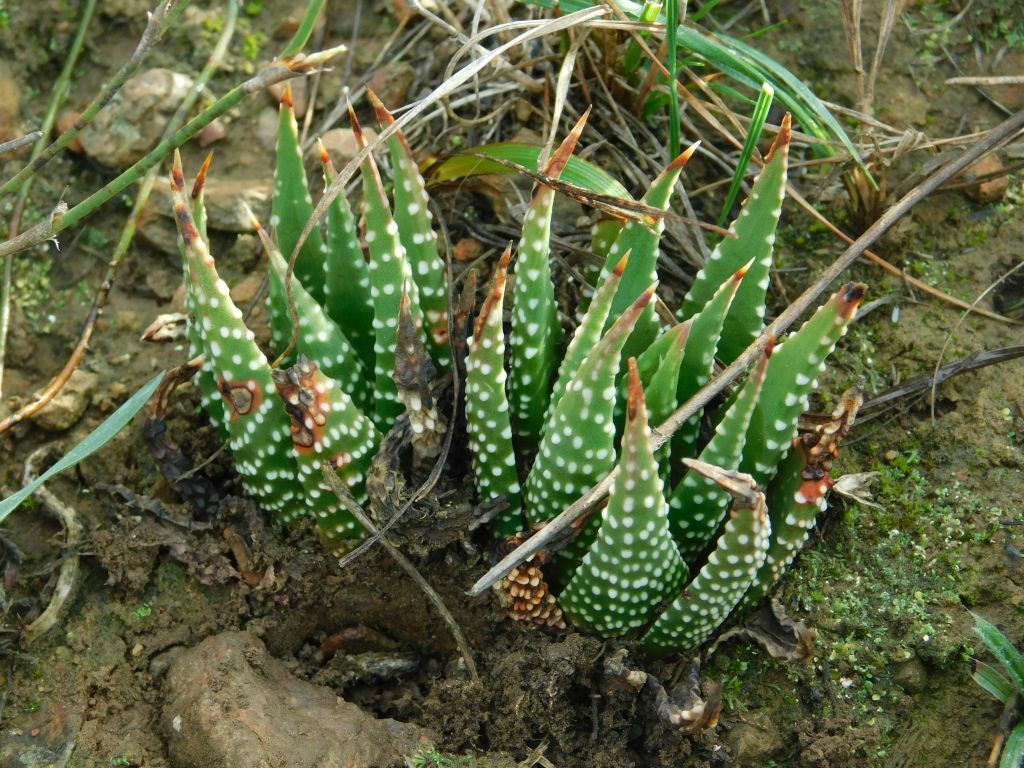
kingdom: Plantae
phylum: Tracheophyta
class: Liliopsida
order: Asparagales
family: Asphodelaceae
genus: Tulista
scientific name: Tulista minor
